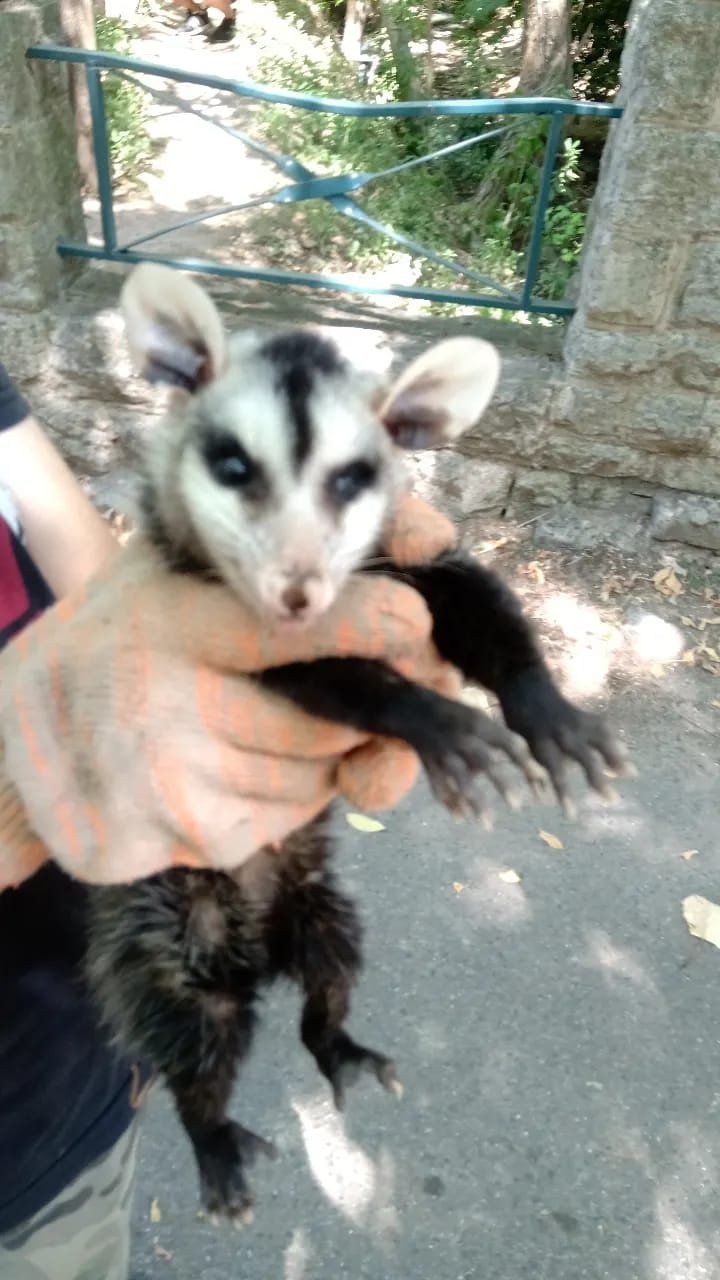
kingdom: Animalia
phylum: Chordata
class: Mammalia
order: Didelphimorphia
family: Didelphidae
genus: Didelphis
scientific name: Didelphis albiventris
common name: White-eared opossum
